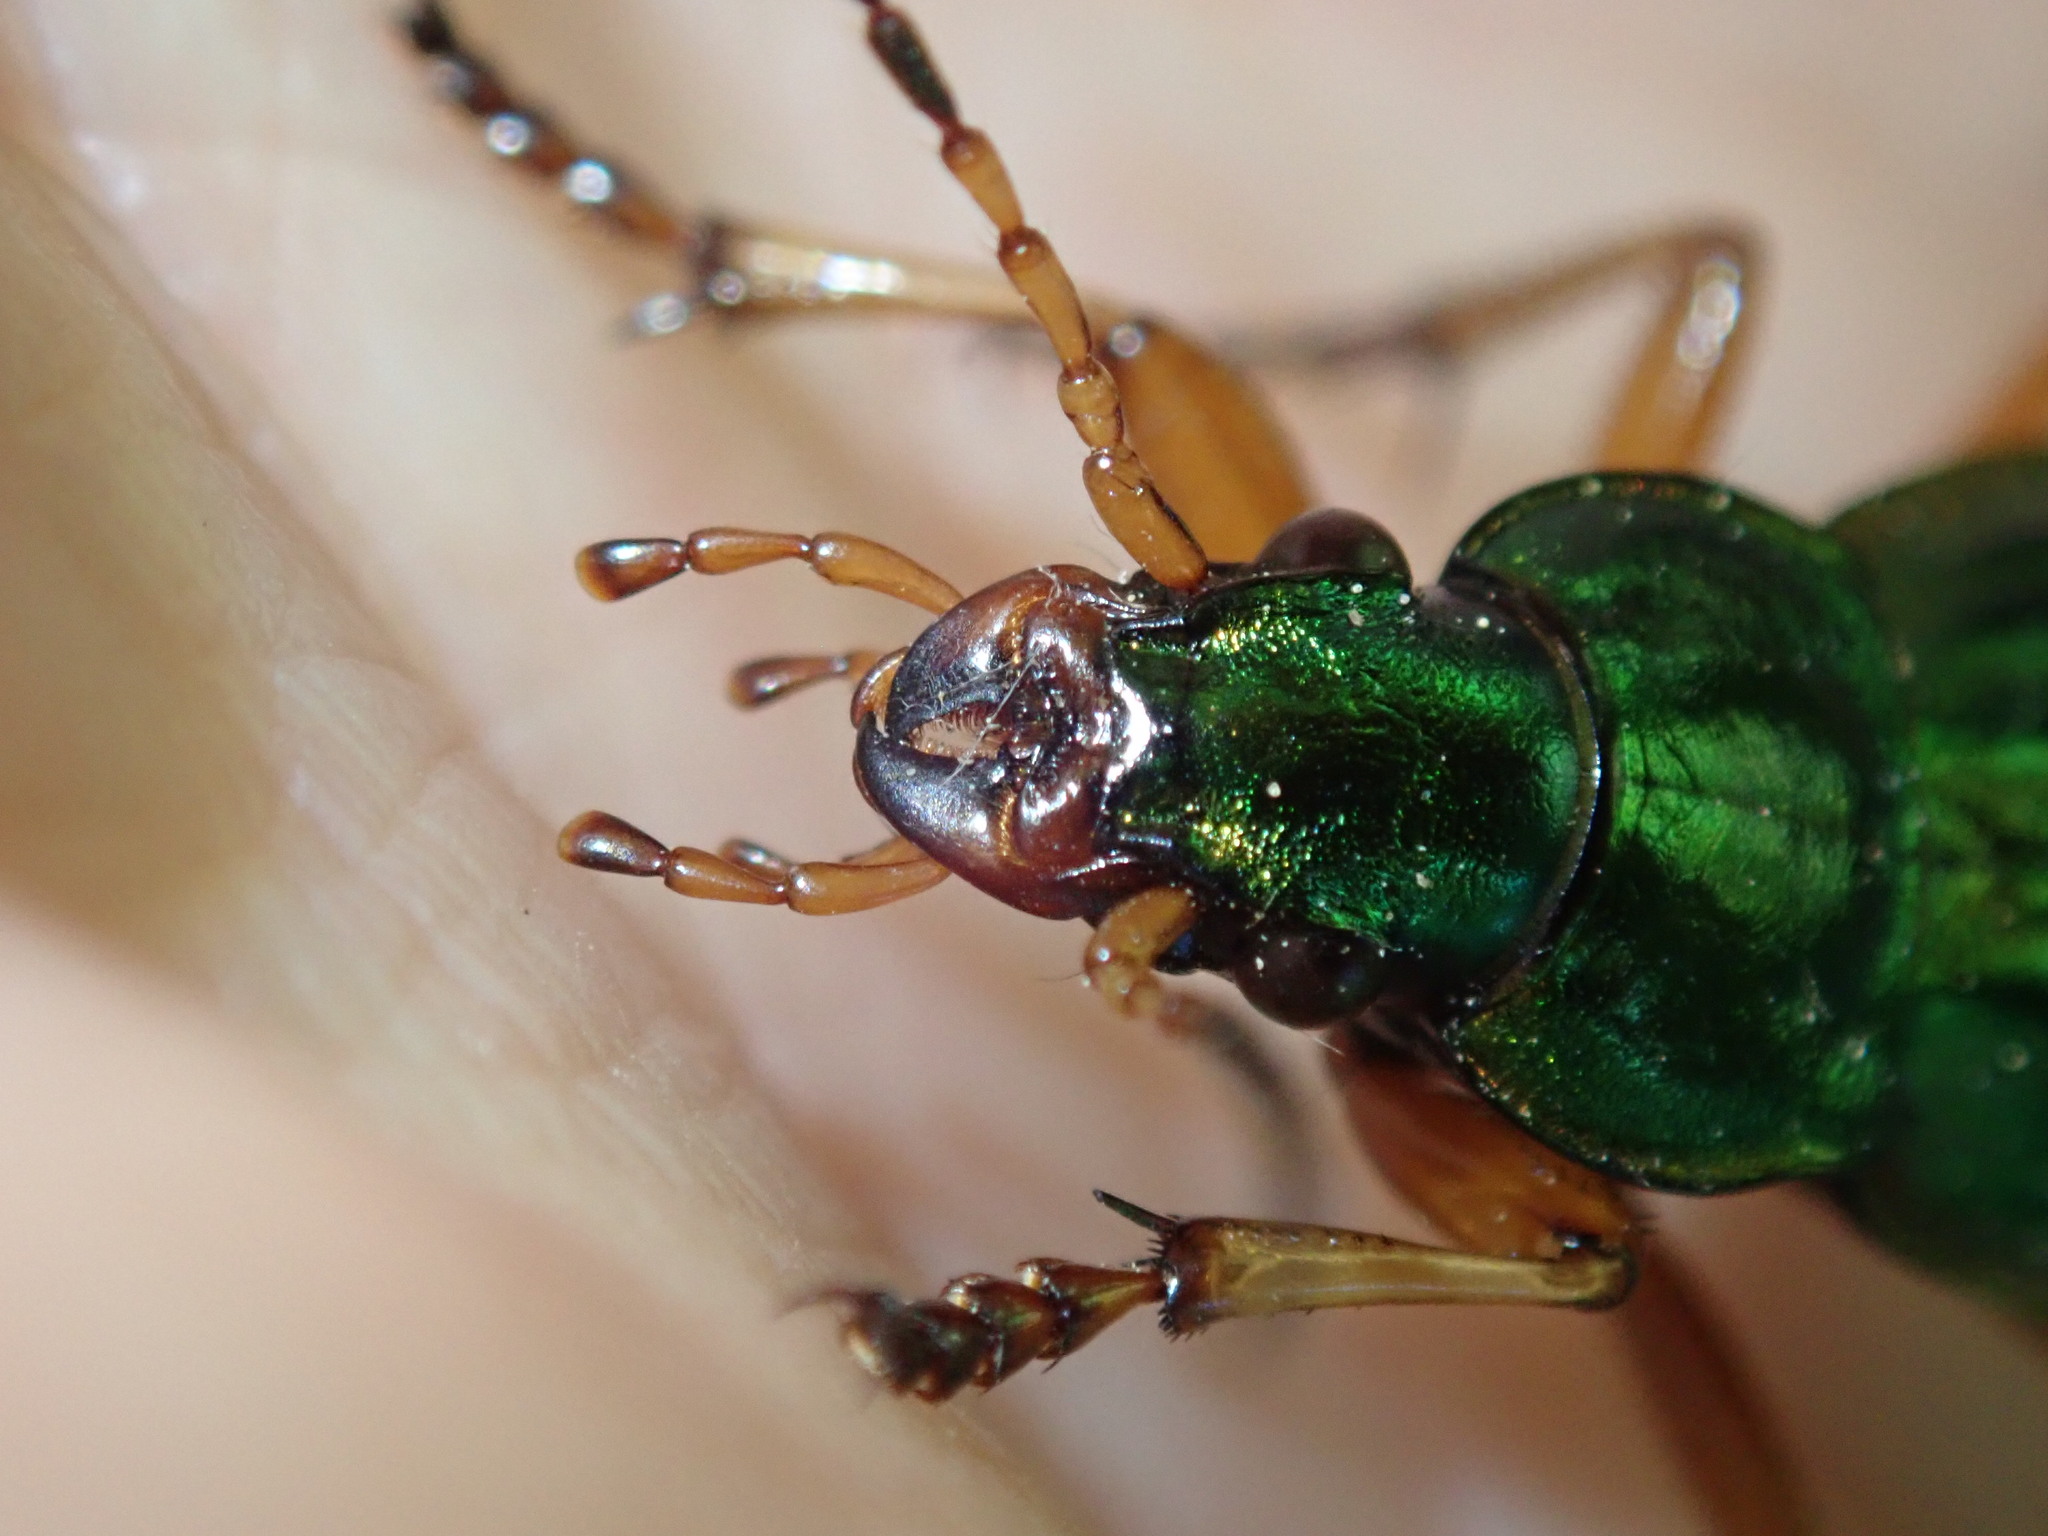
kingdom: Animalia
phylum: Arthropoda
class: Insecta
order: Coleoptera
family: Carabidae
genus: Carabus
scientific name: Carabus auratus
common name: Golden ground beetle
